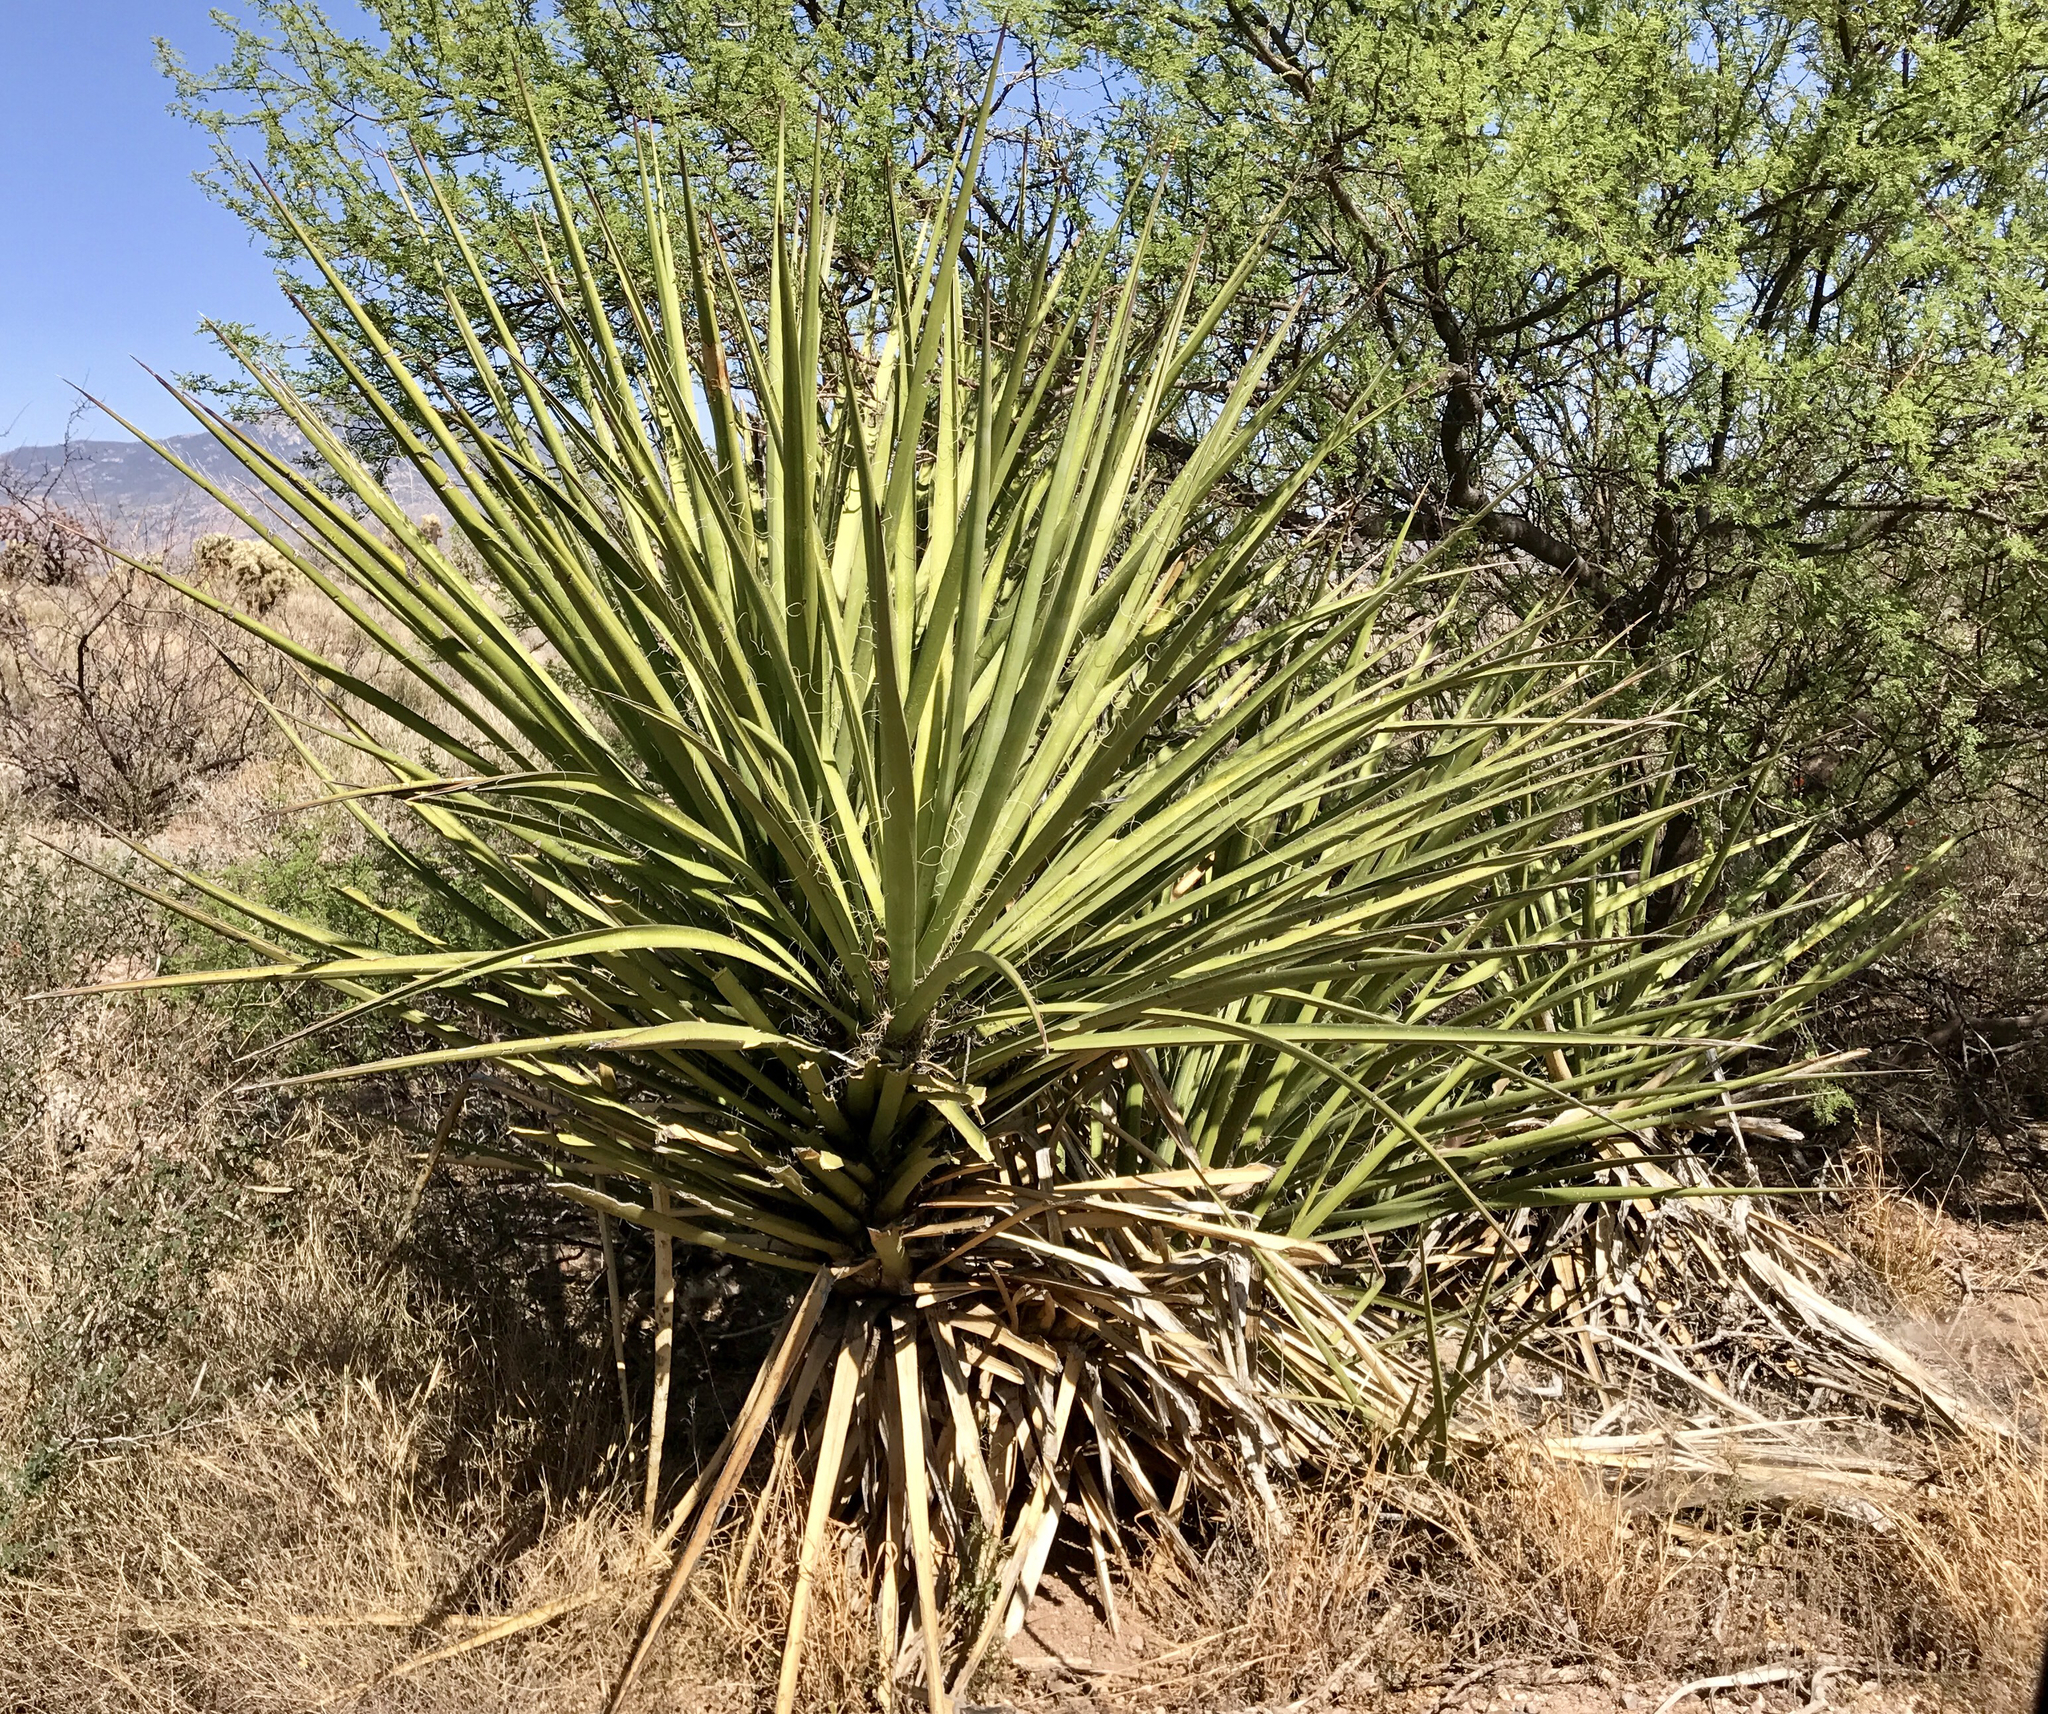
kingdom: Plantae
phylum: Tracheophyta
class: Liliopsida
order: Asparagales
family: Asparagaceae
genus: Yucca
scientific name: Yucca baccata
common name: Banana yucca
